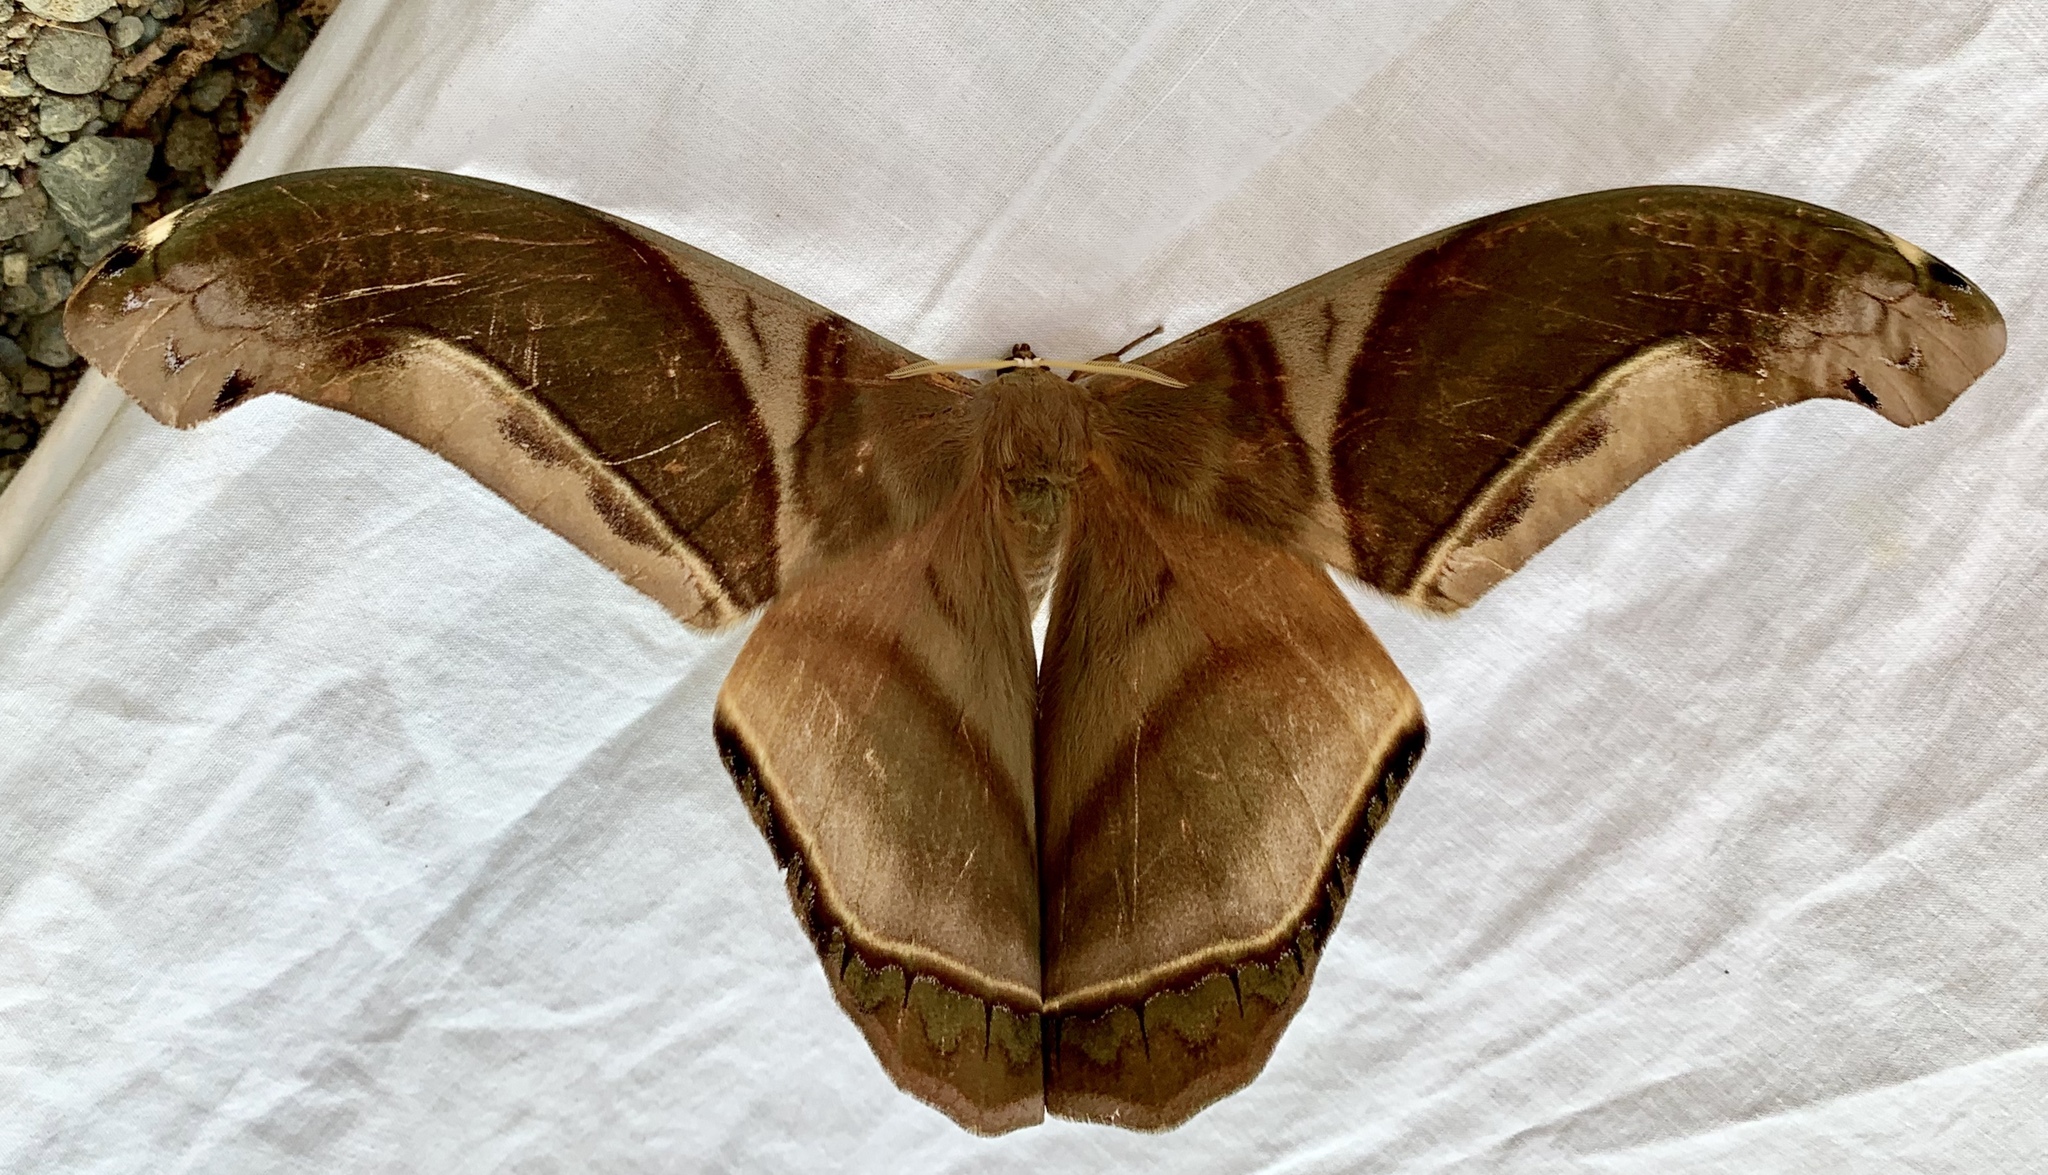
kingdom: Animalia
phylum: Arthropoda
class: Insecta
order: Lepidoptera
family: Saturniidae
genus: Rhescyntis
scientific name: Rhescyntis hippodamia
